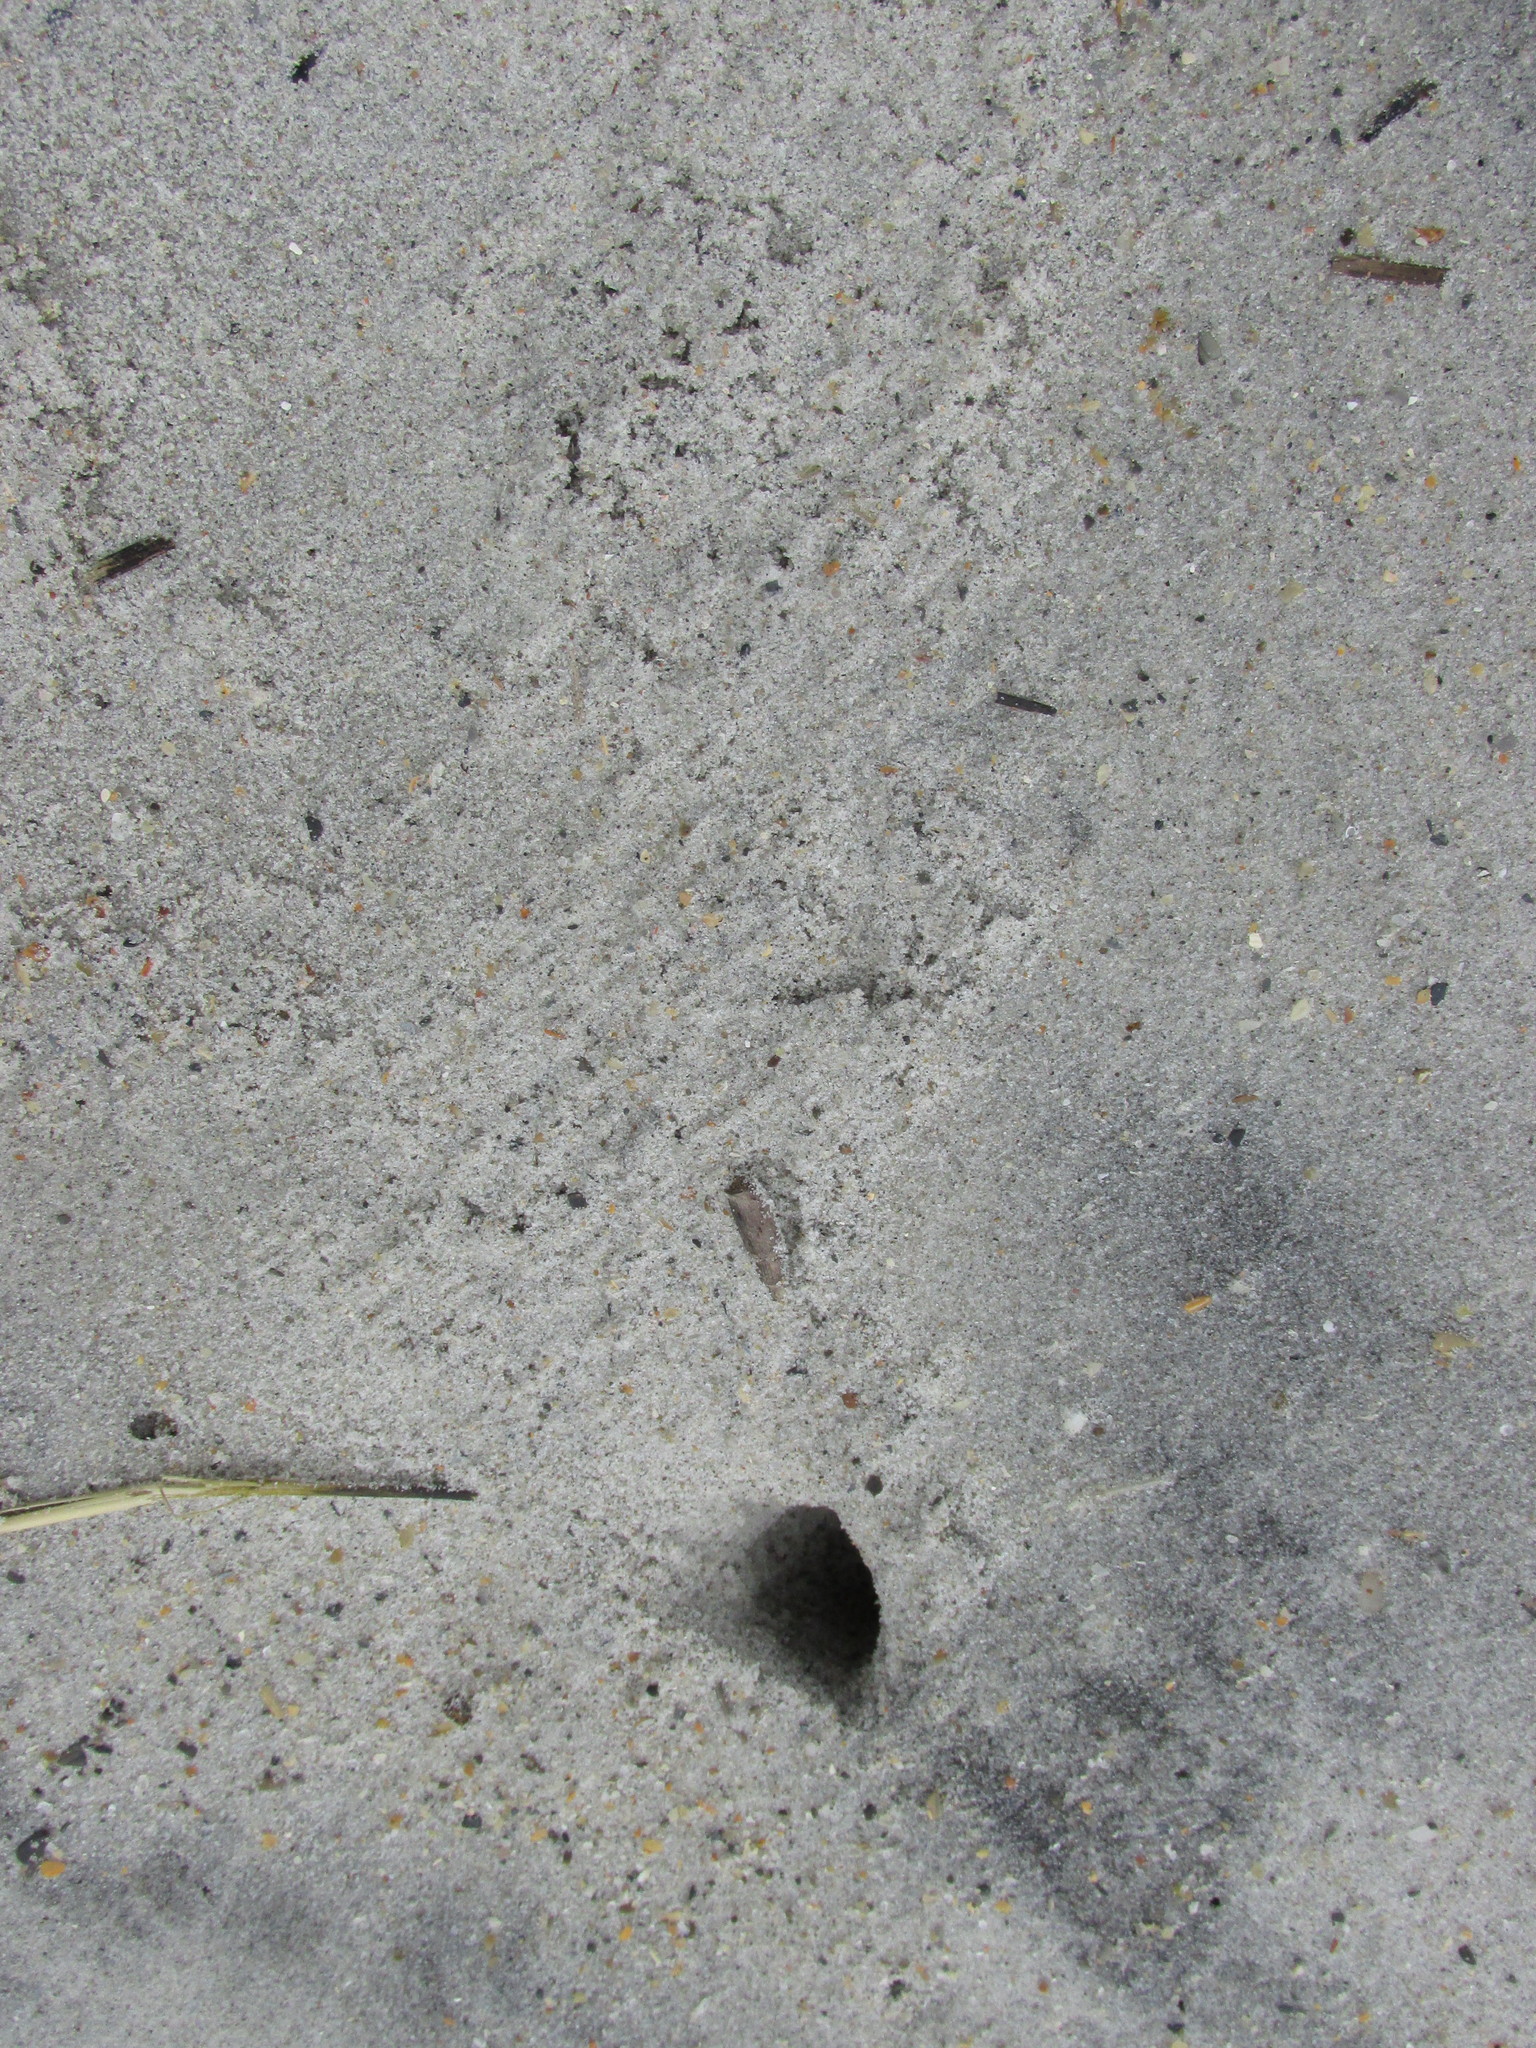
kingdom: Animalia
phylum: Arthropoda
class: Malacostraca
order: Decapoda
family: Ocypodidae
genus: Ocypode
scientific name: Ocypode quadrata
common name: Ghost crab
